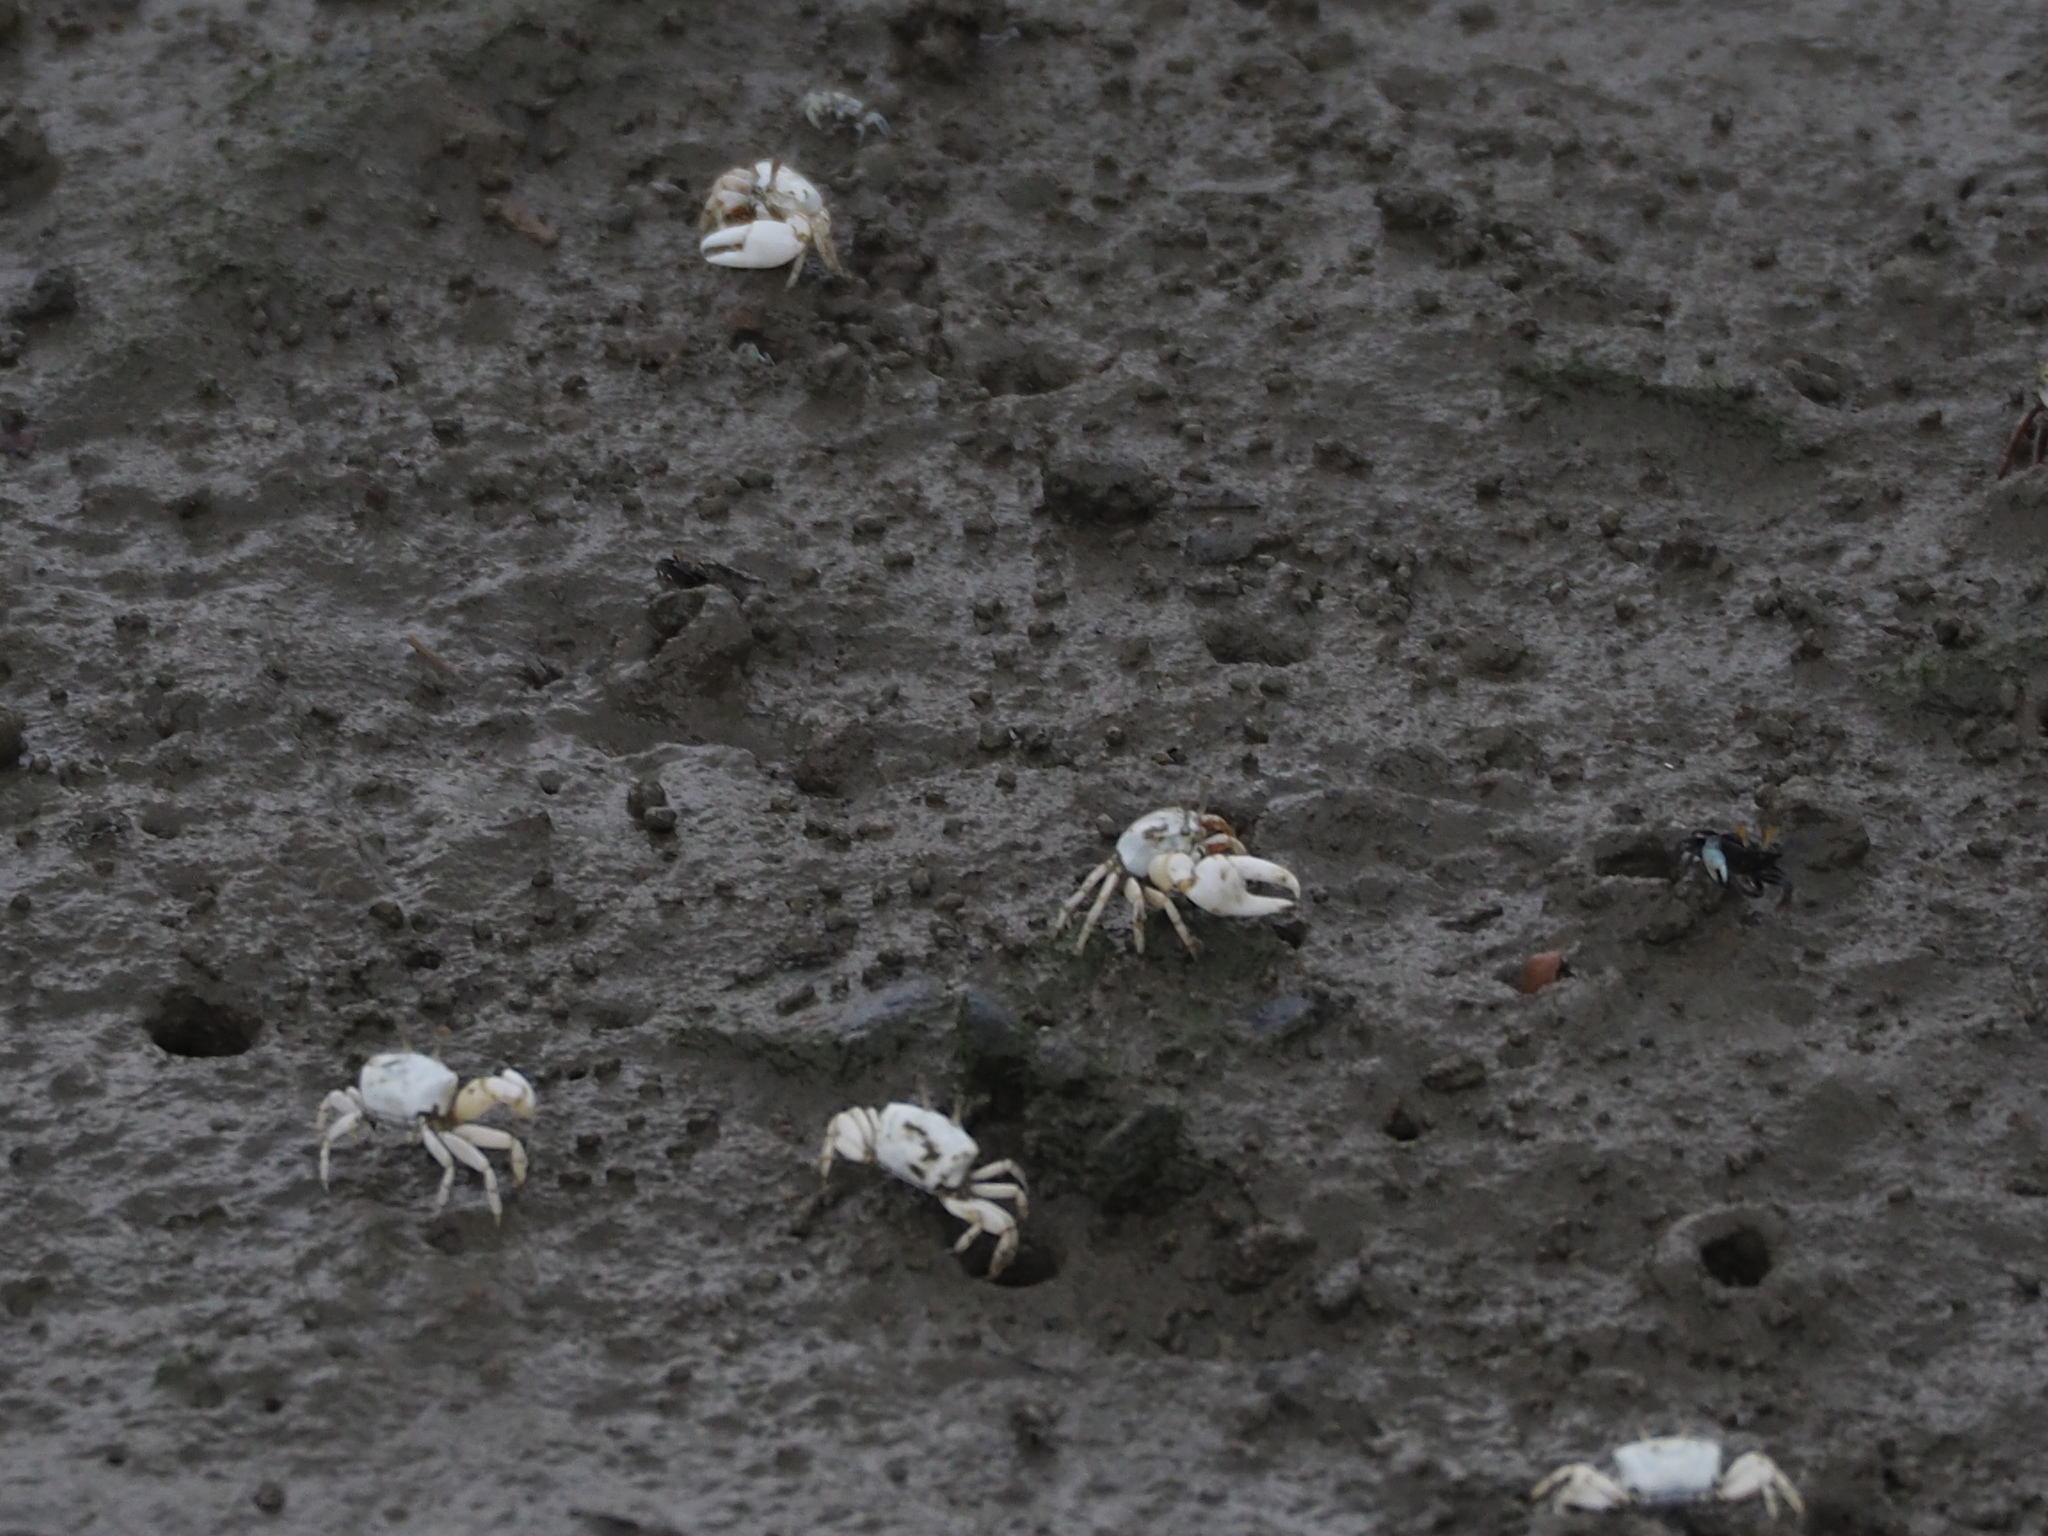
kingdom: Animalia
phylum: Arthropoda
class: Malacostraca
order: Decapoda
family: Ocypodidae
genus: Austruca
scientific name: Austruca lactea
